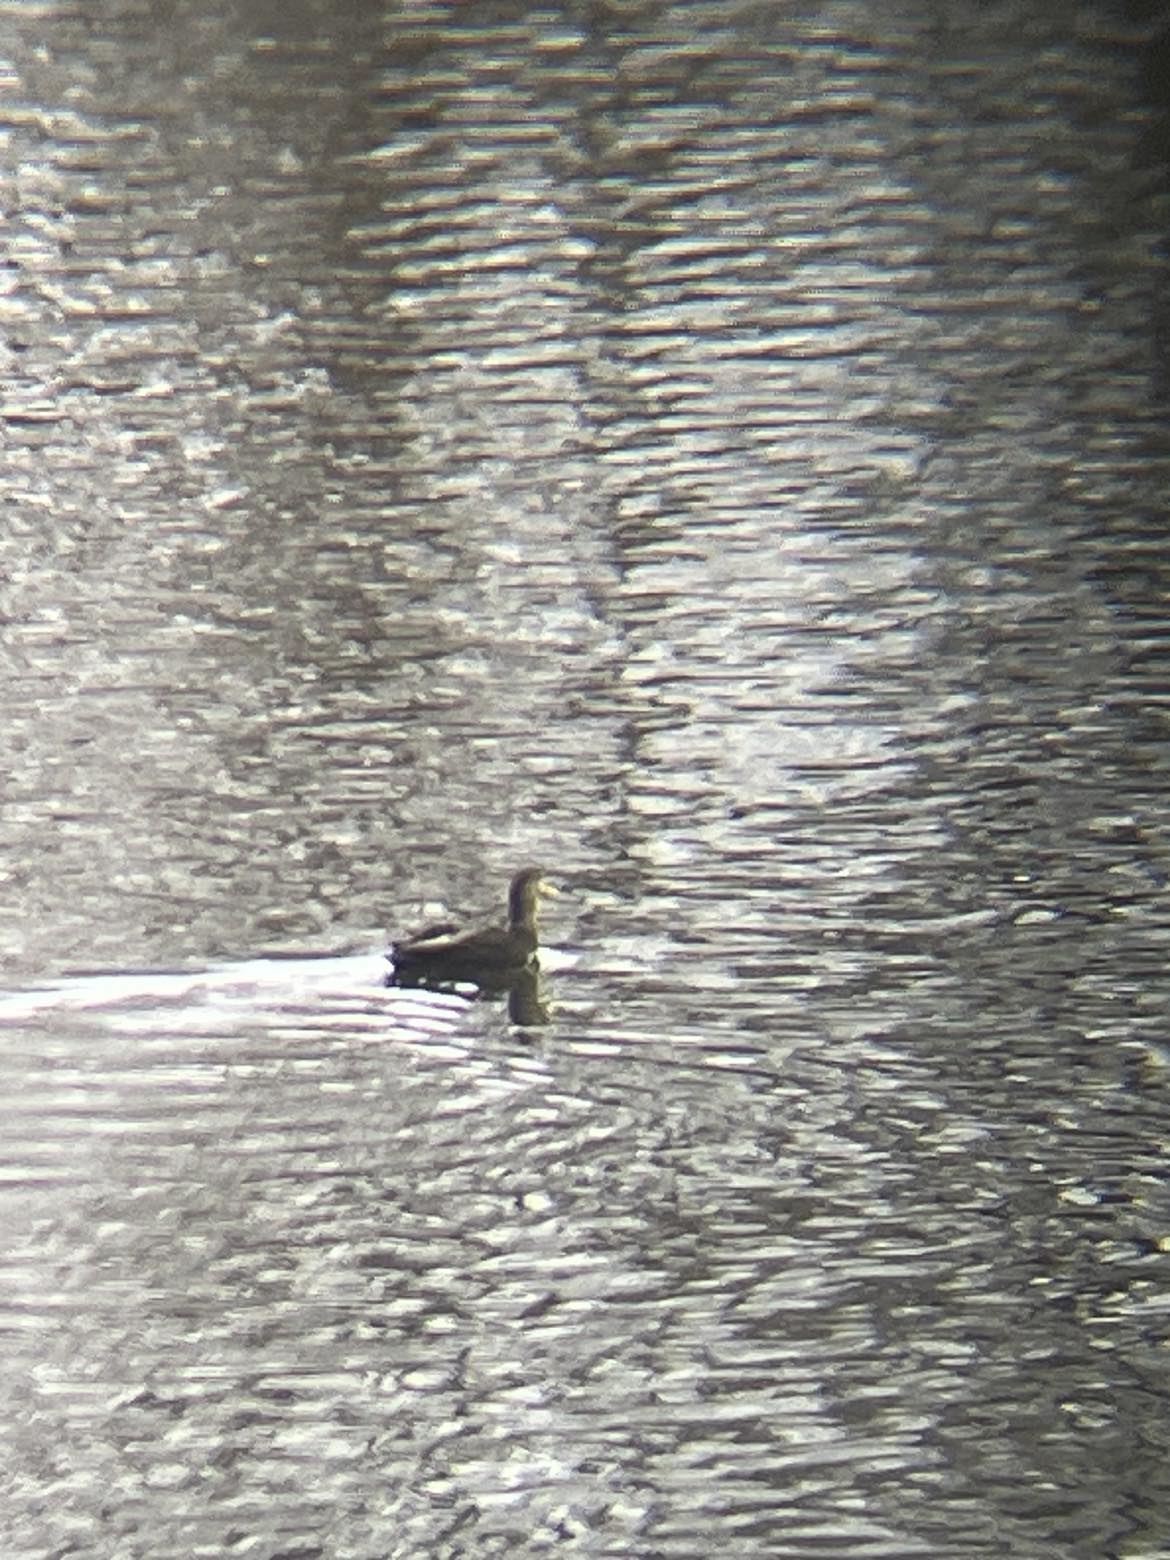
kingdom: Animalia
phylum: Chordata
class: Aves
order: Anseriformes
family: Anatidae
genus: Anas
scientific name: Anas rubripes
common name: American black duck
